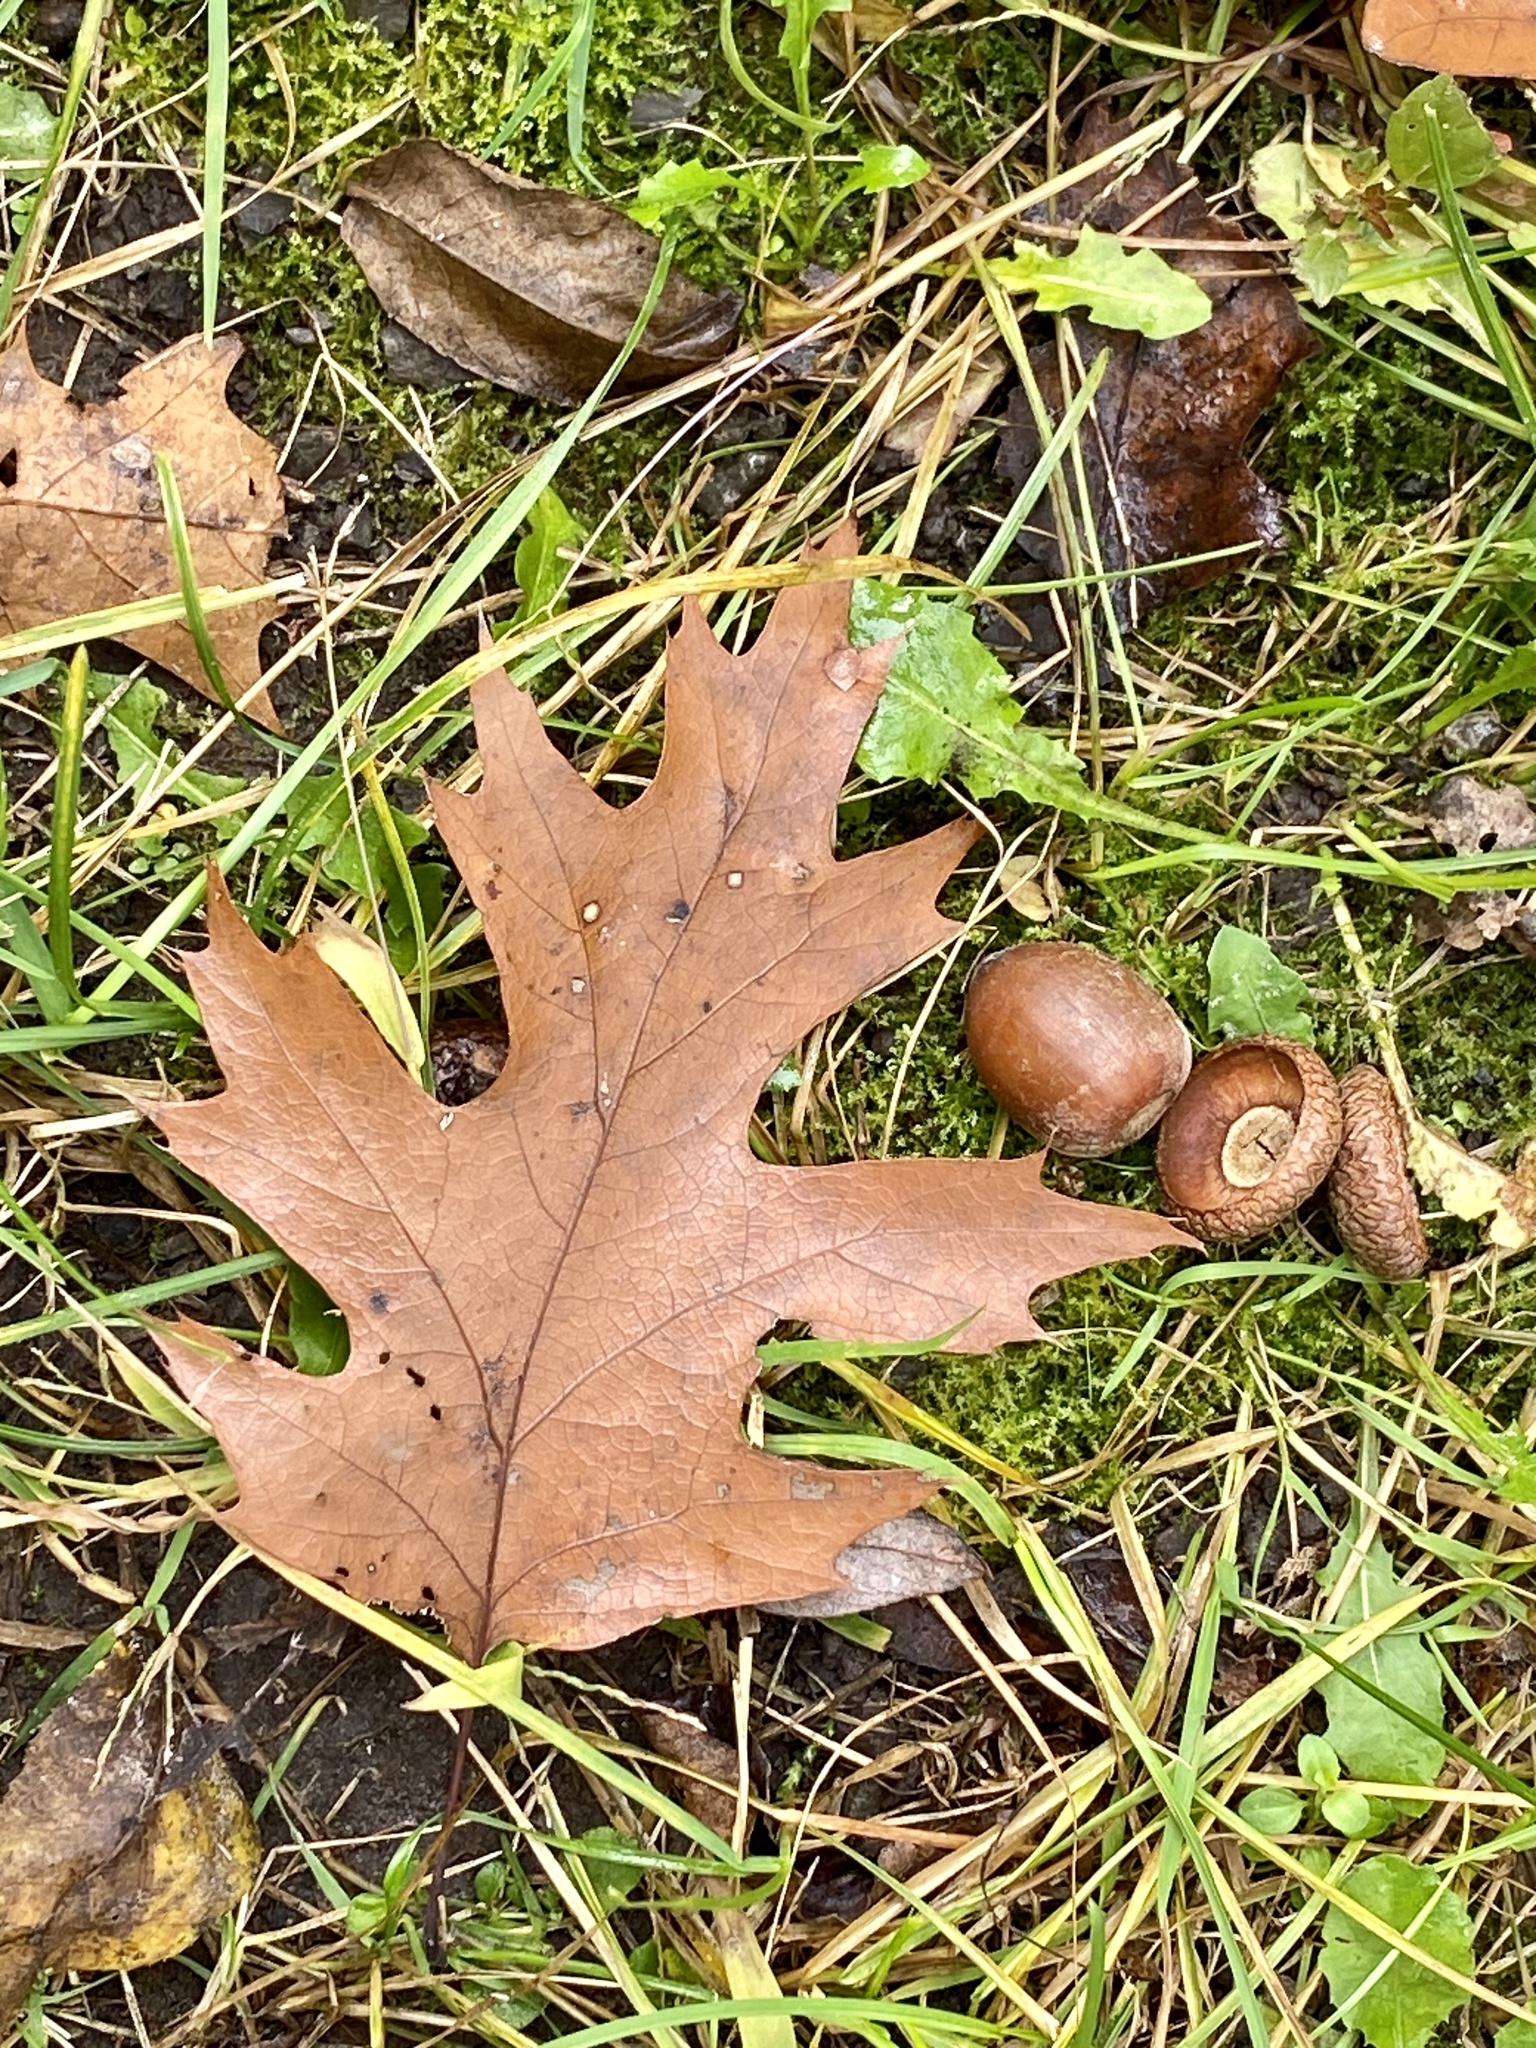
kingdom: Plantae
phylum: Tracheophyta
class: Magnoliopsida
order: Fagales
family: Fagaceae
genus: Quercus
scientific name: Quercus rubra
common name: Red oak
